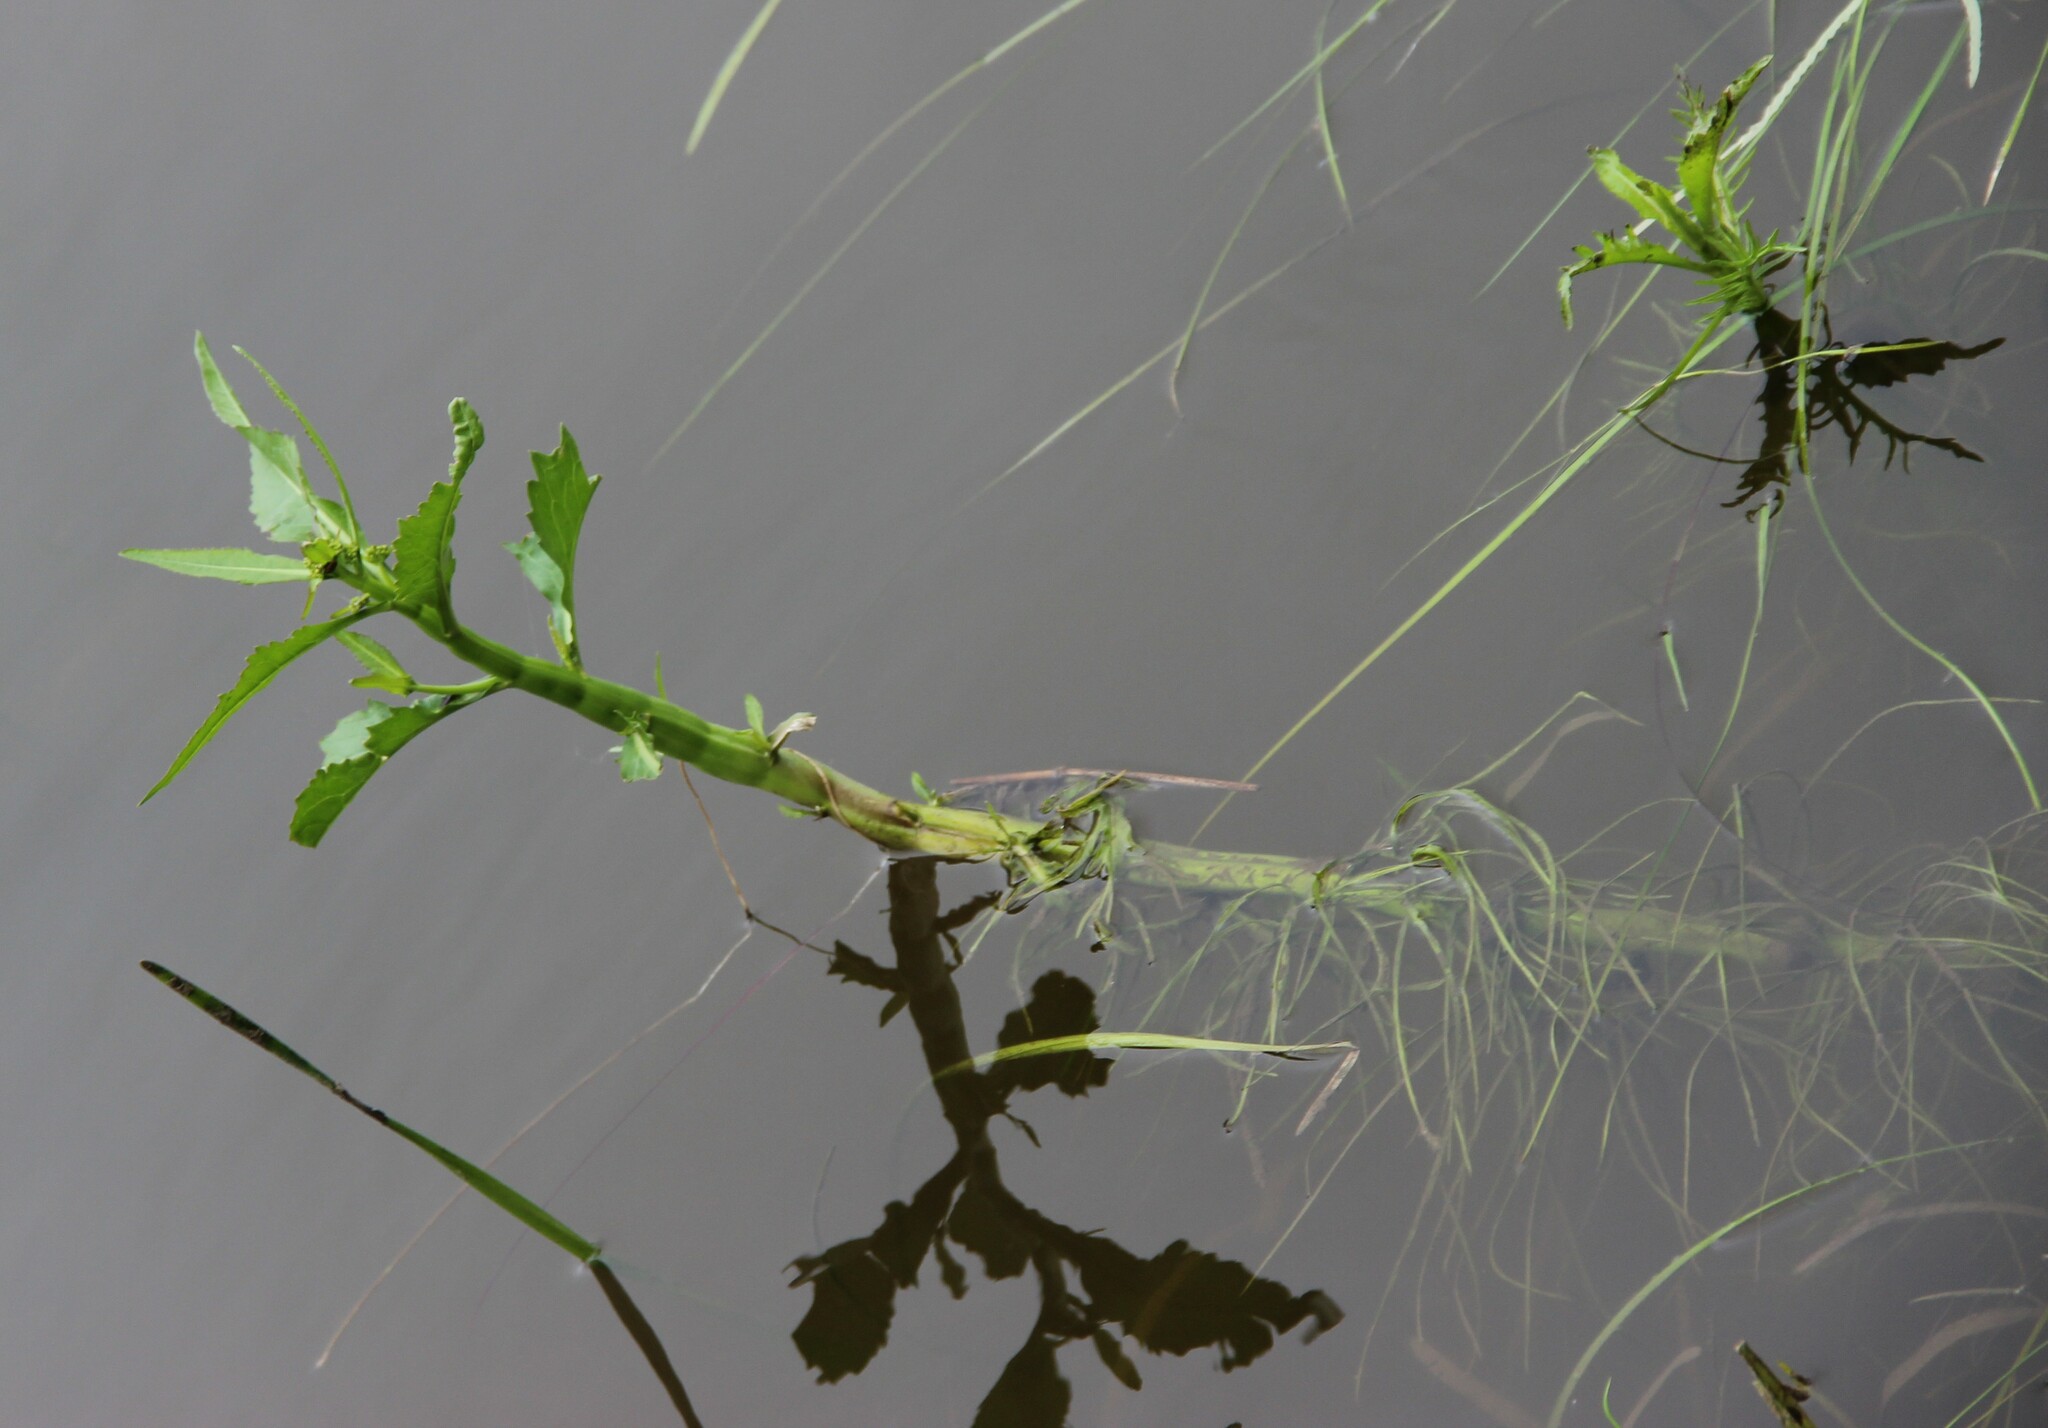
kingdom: Plantae
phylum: Tracheophyta
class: Magnoliopsida
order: Brassicales
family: Brassicaceae
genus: Rorippa
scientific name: Rorippa amphibia
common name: Great yellow-cress
